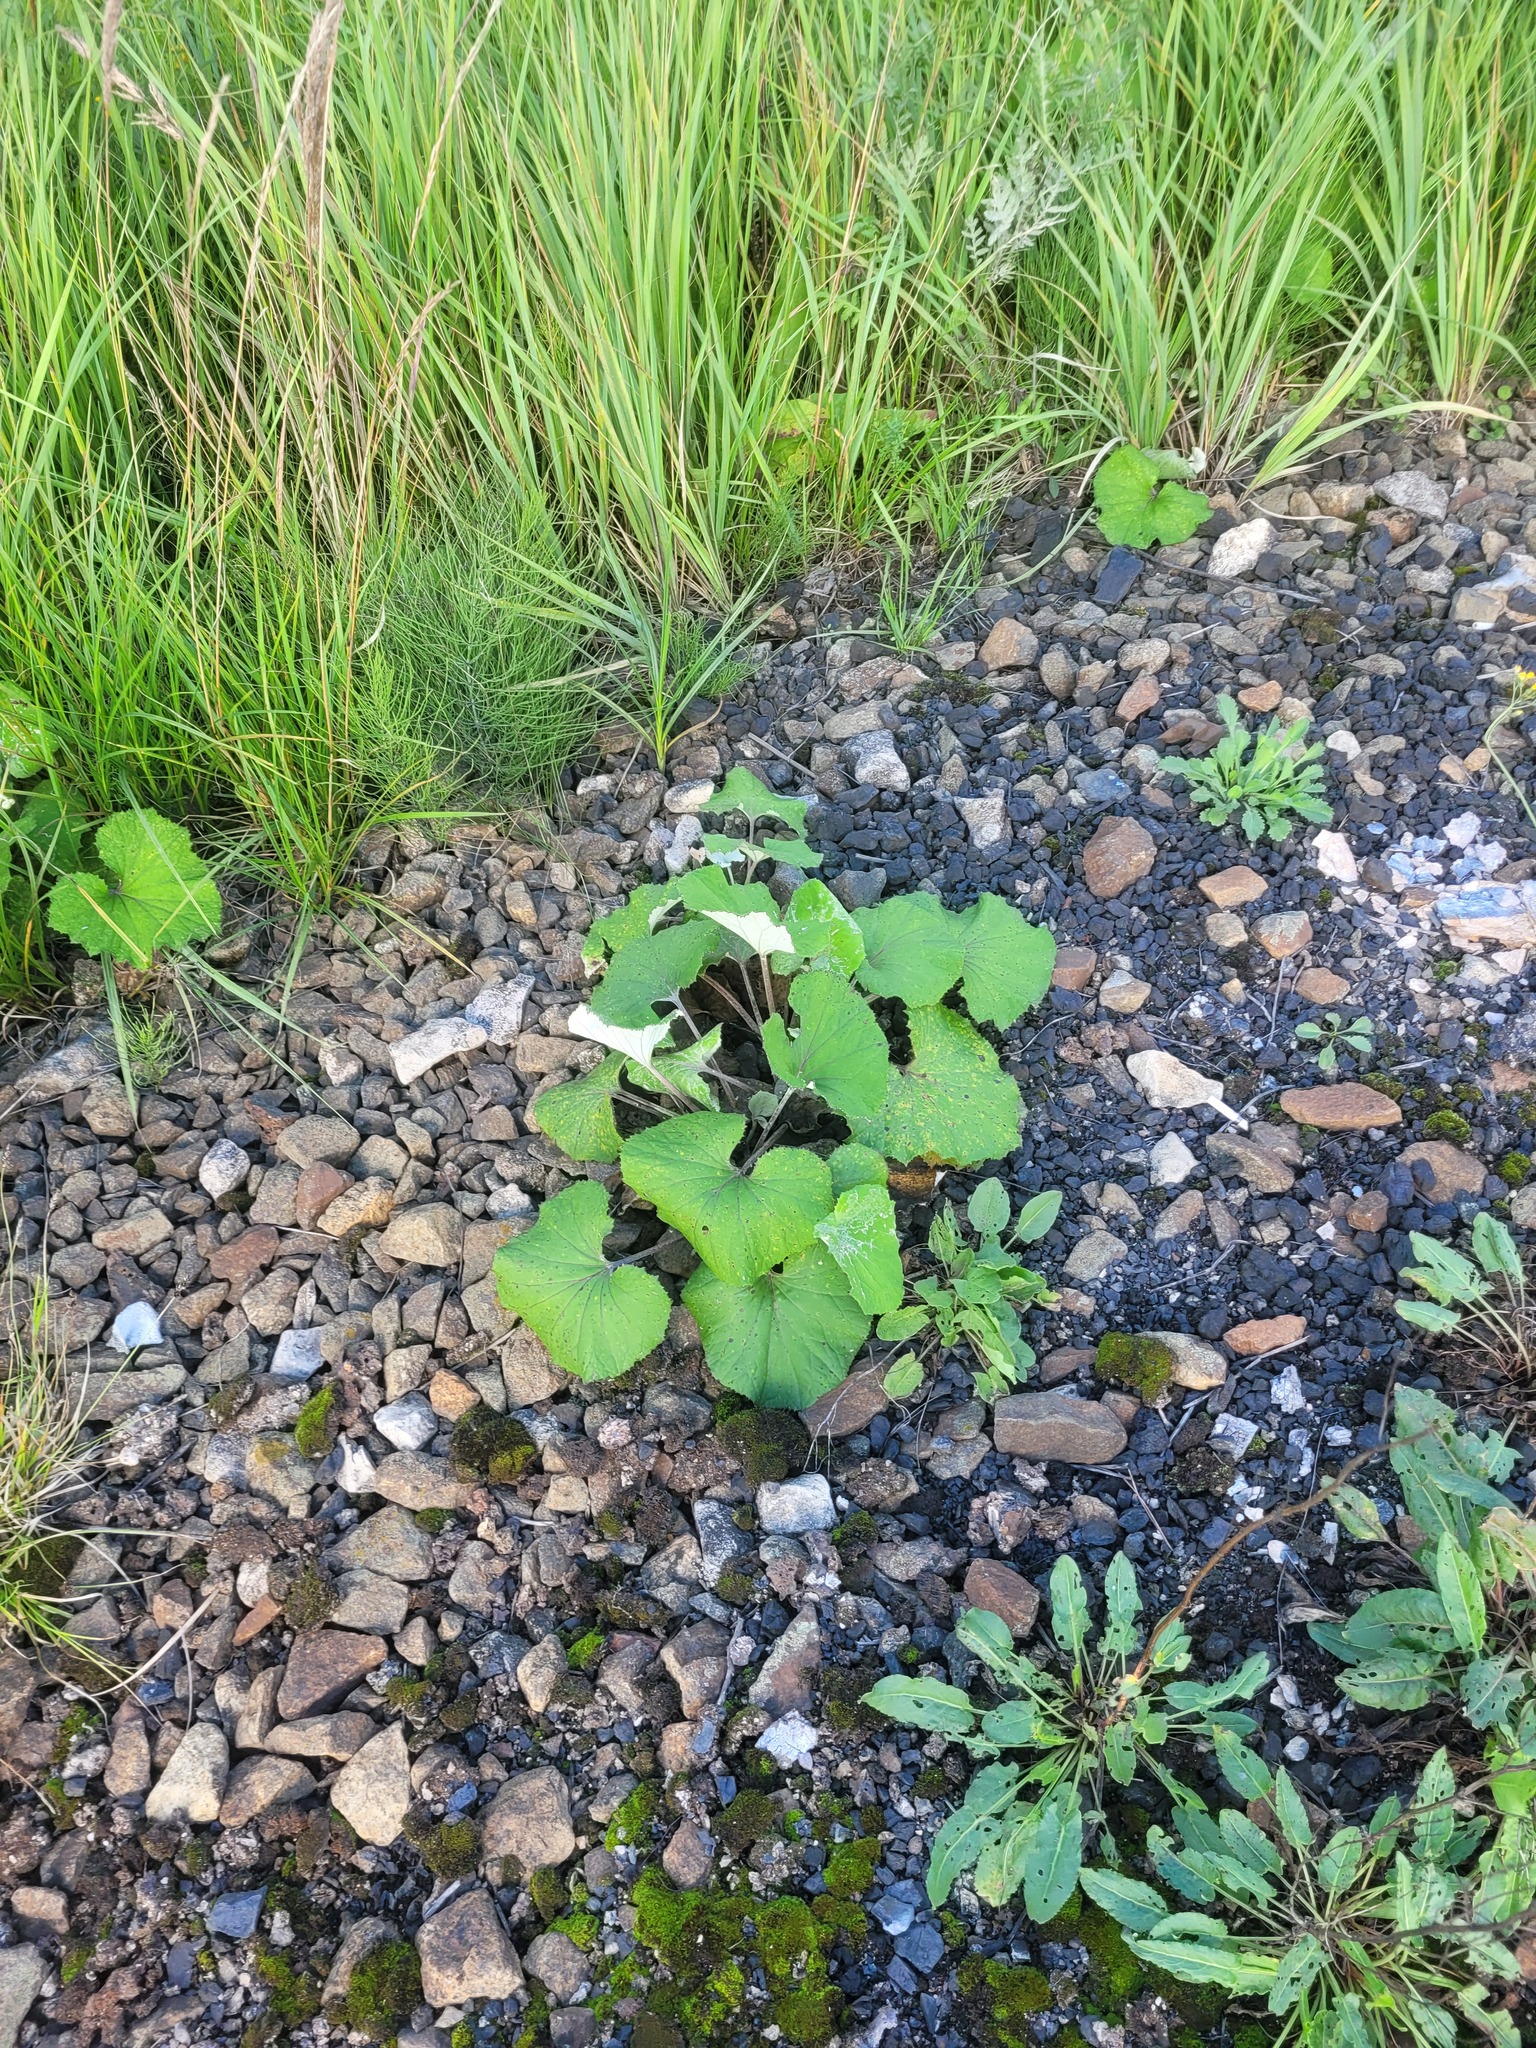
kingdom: Plantae
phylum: Tracheophyta
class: Magnoliopsida
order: Asterales
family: Asteraceae
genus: Tussilago
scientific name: Tussilago farfara
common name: Coltsfoot
